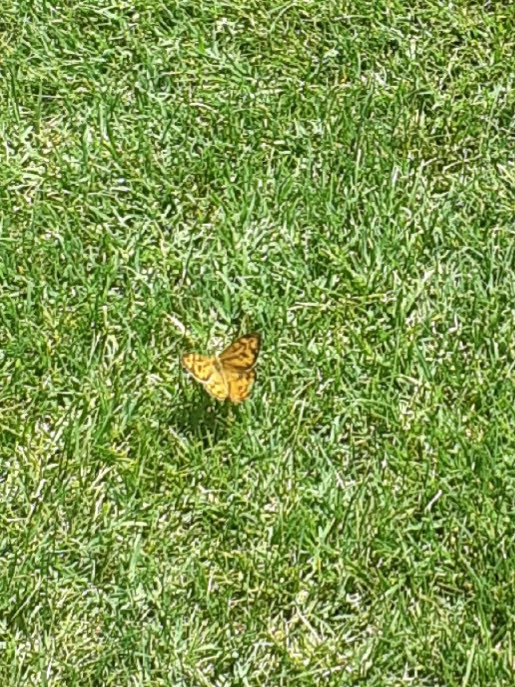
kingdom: Animalia
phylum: Arthropoda
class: Insecta
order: Lepidoptera
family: Nymphalidae
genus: Heteronympha
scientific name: Heteronympha merope
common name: Common brown
